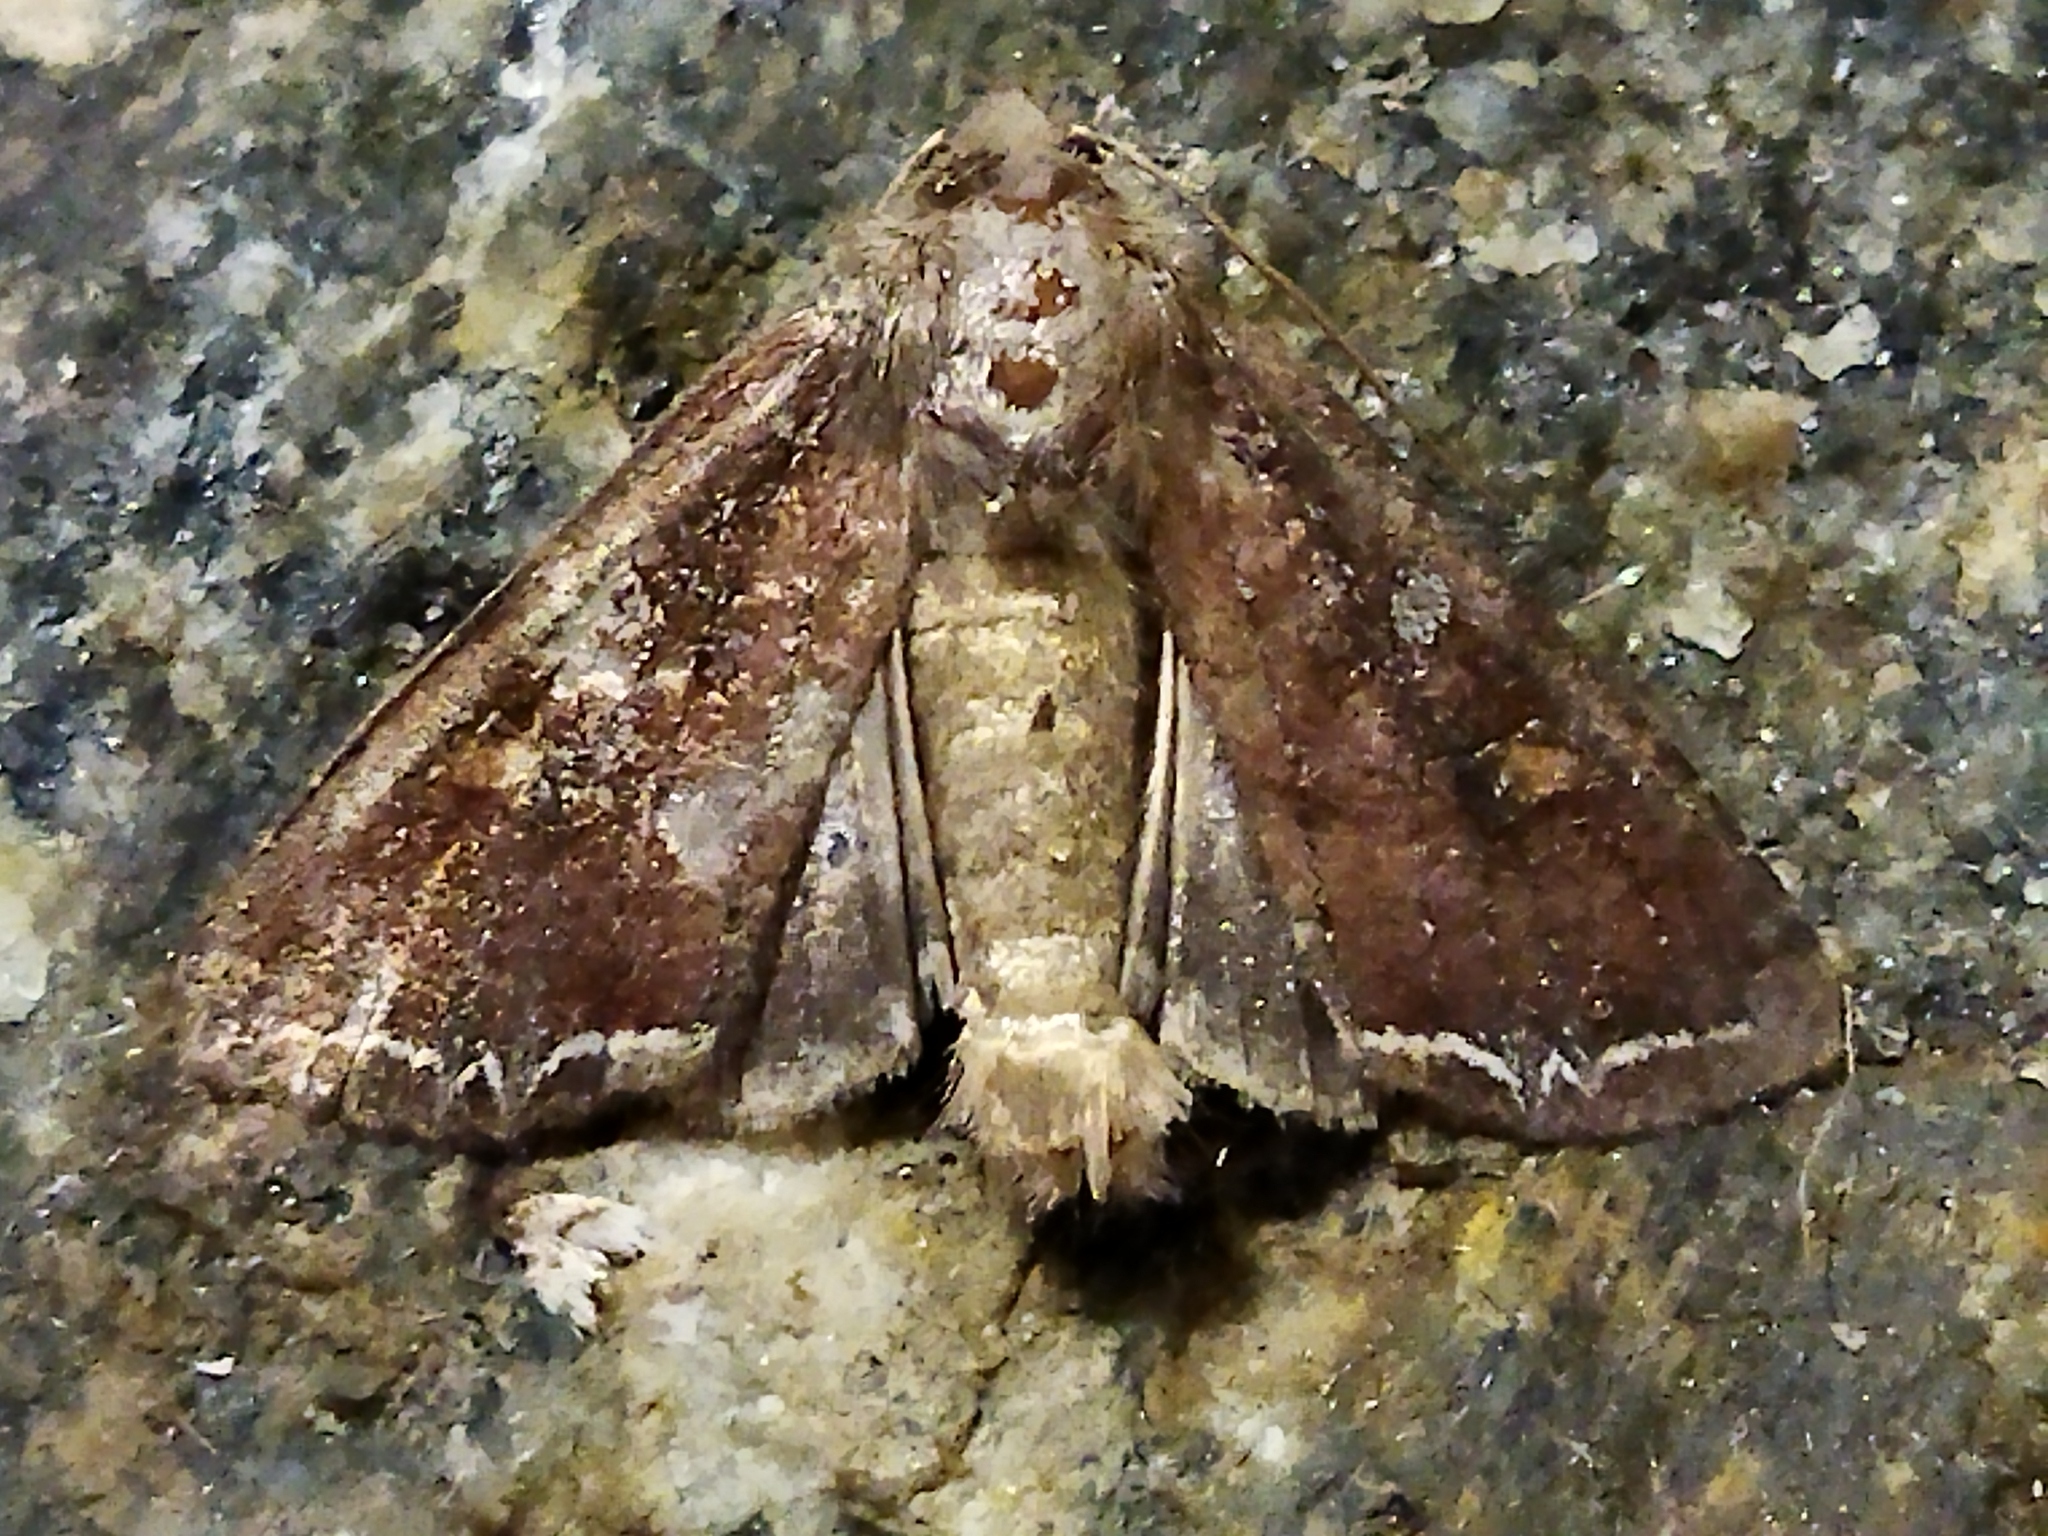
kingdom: Animalia
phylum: Arthropoda
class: Insecta
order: Lepidoptera
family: Noctuidae
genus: Lacanobia
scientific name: Lacanobia oleracea
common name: Bright-line brown-eye
